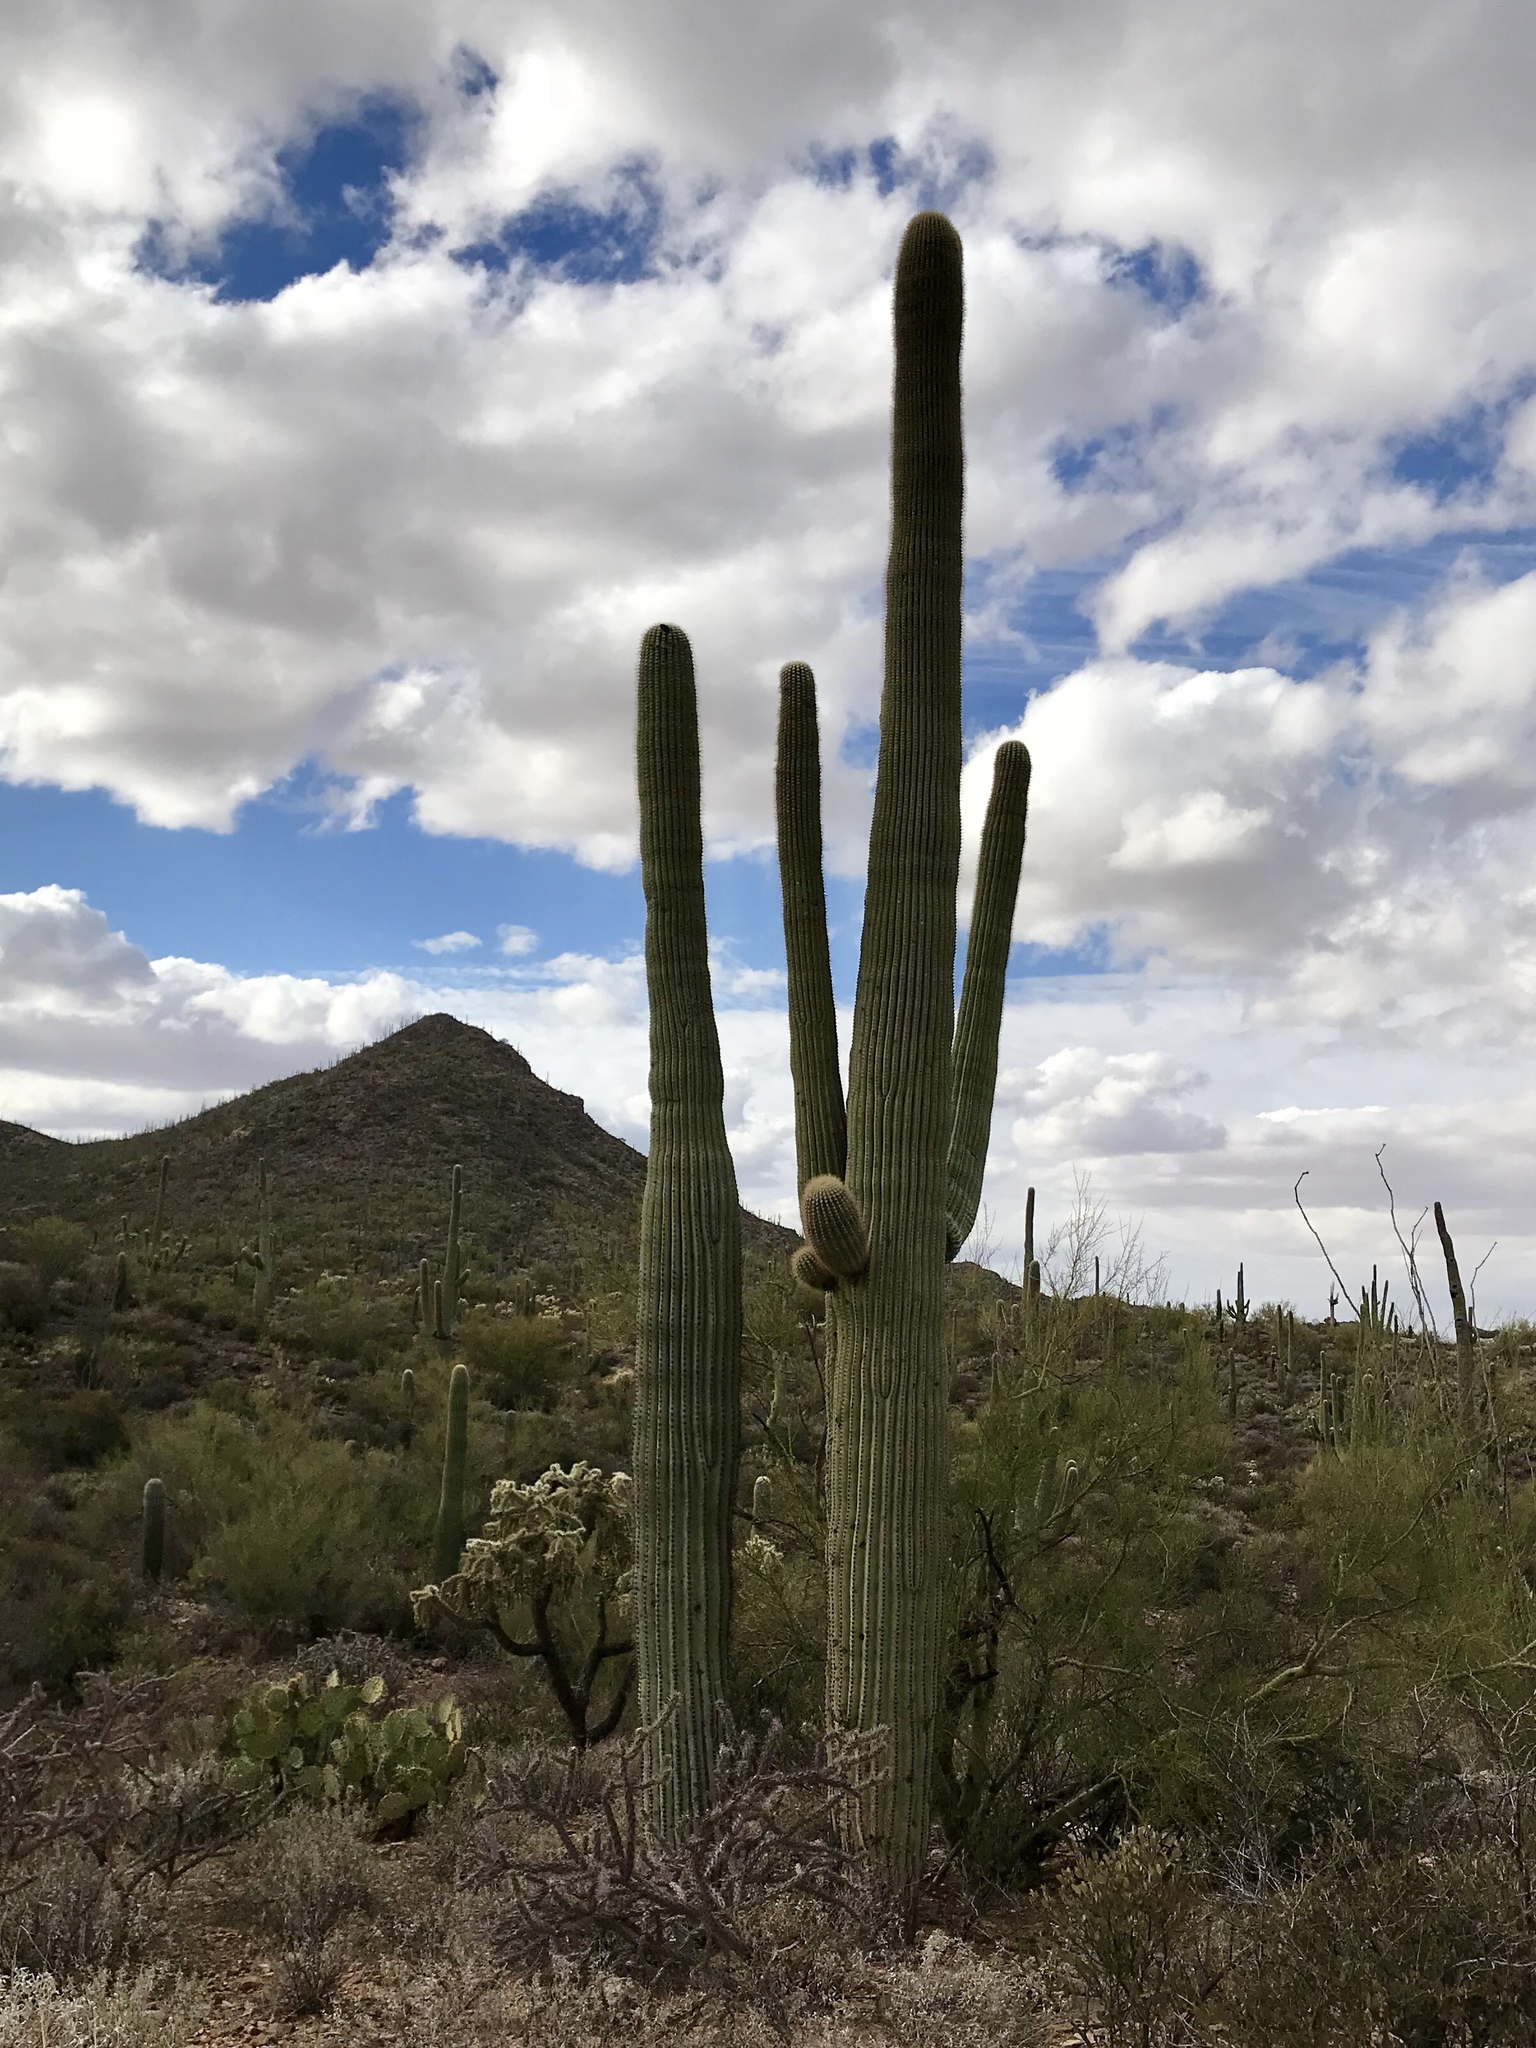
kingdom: Plantae
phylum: Tracheophyta
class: Magnoliopsida
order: Caryophyllales
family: Cactaceae
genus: Carnegiea
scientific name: Carnegiea gigantea
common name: Saguaro
